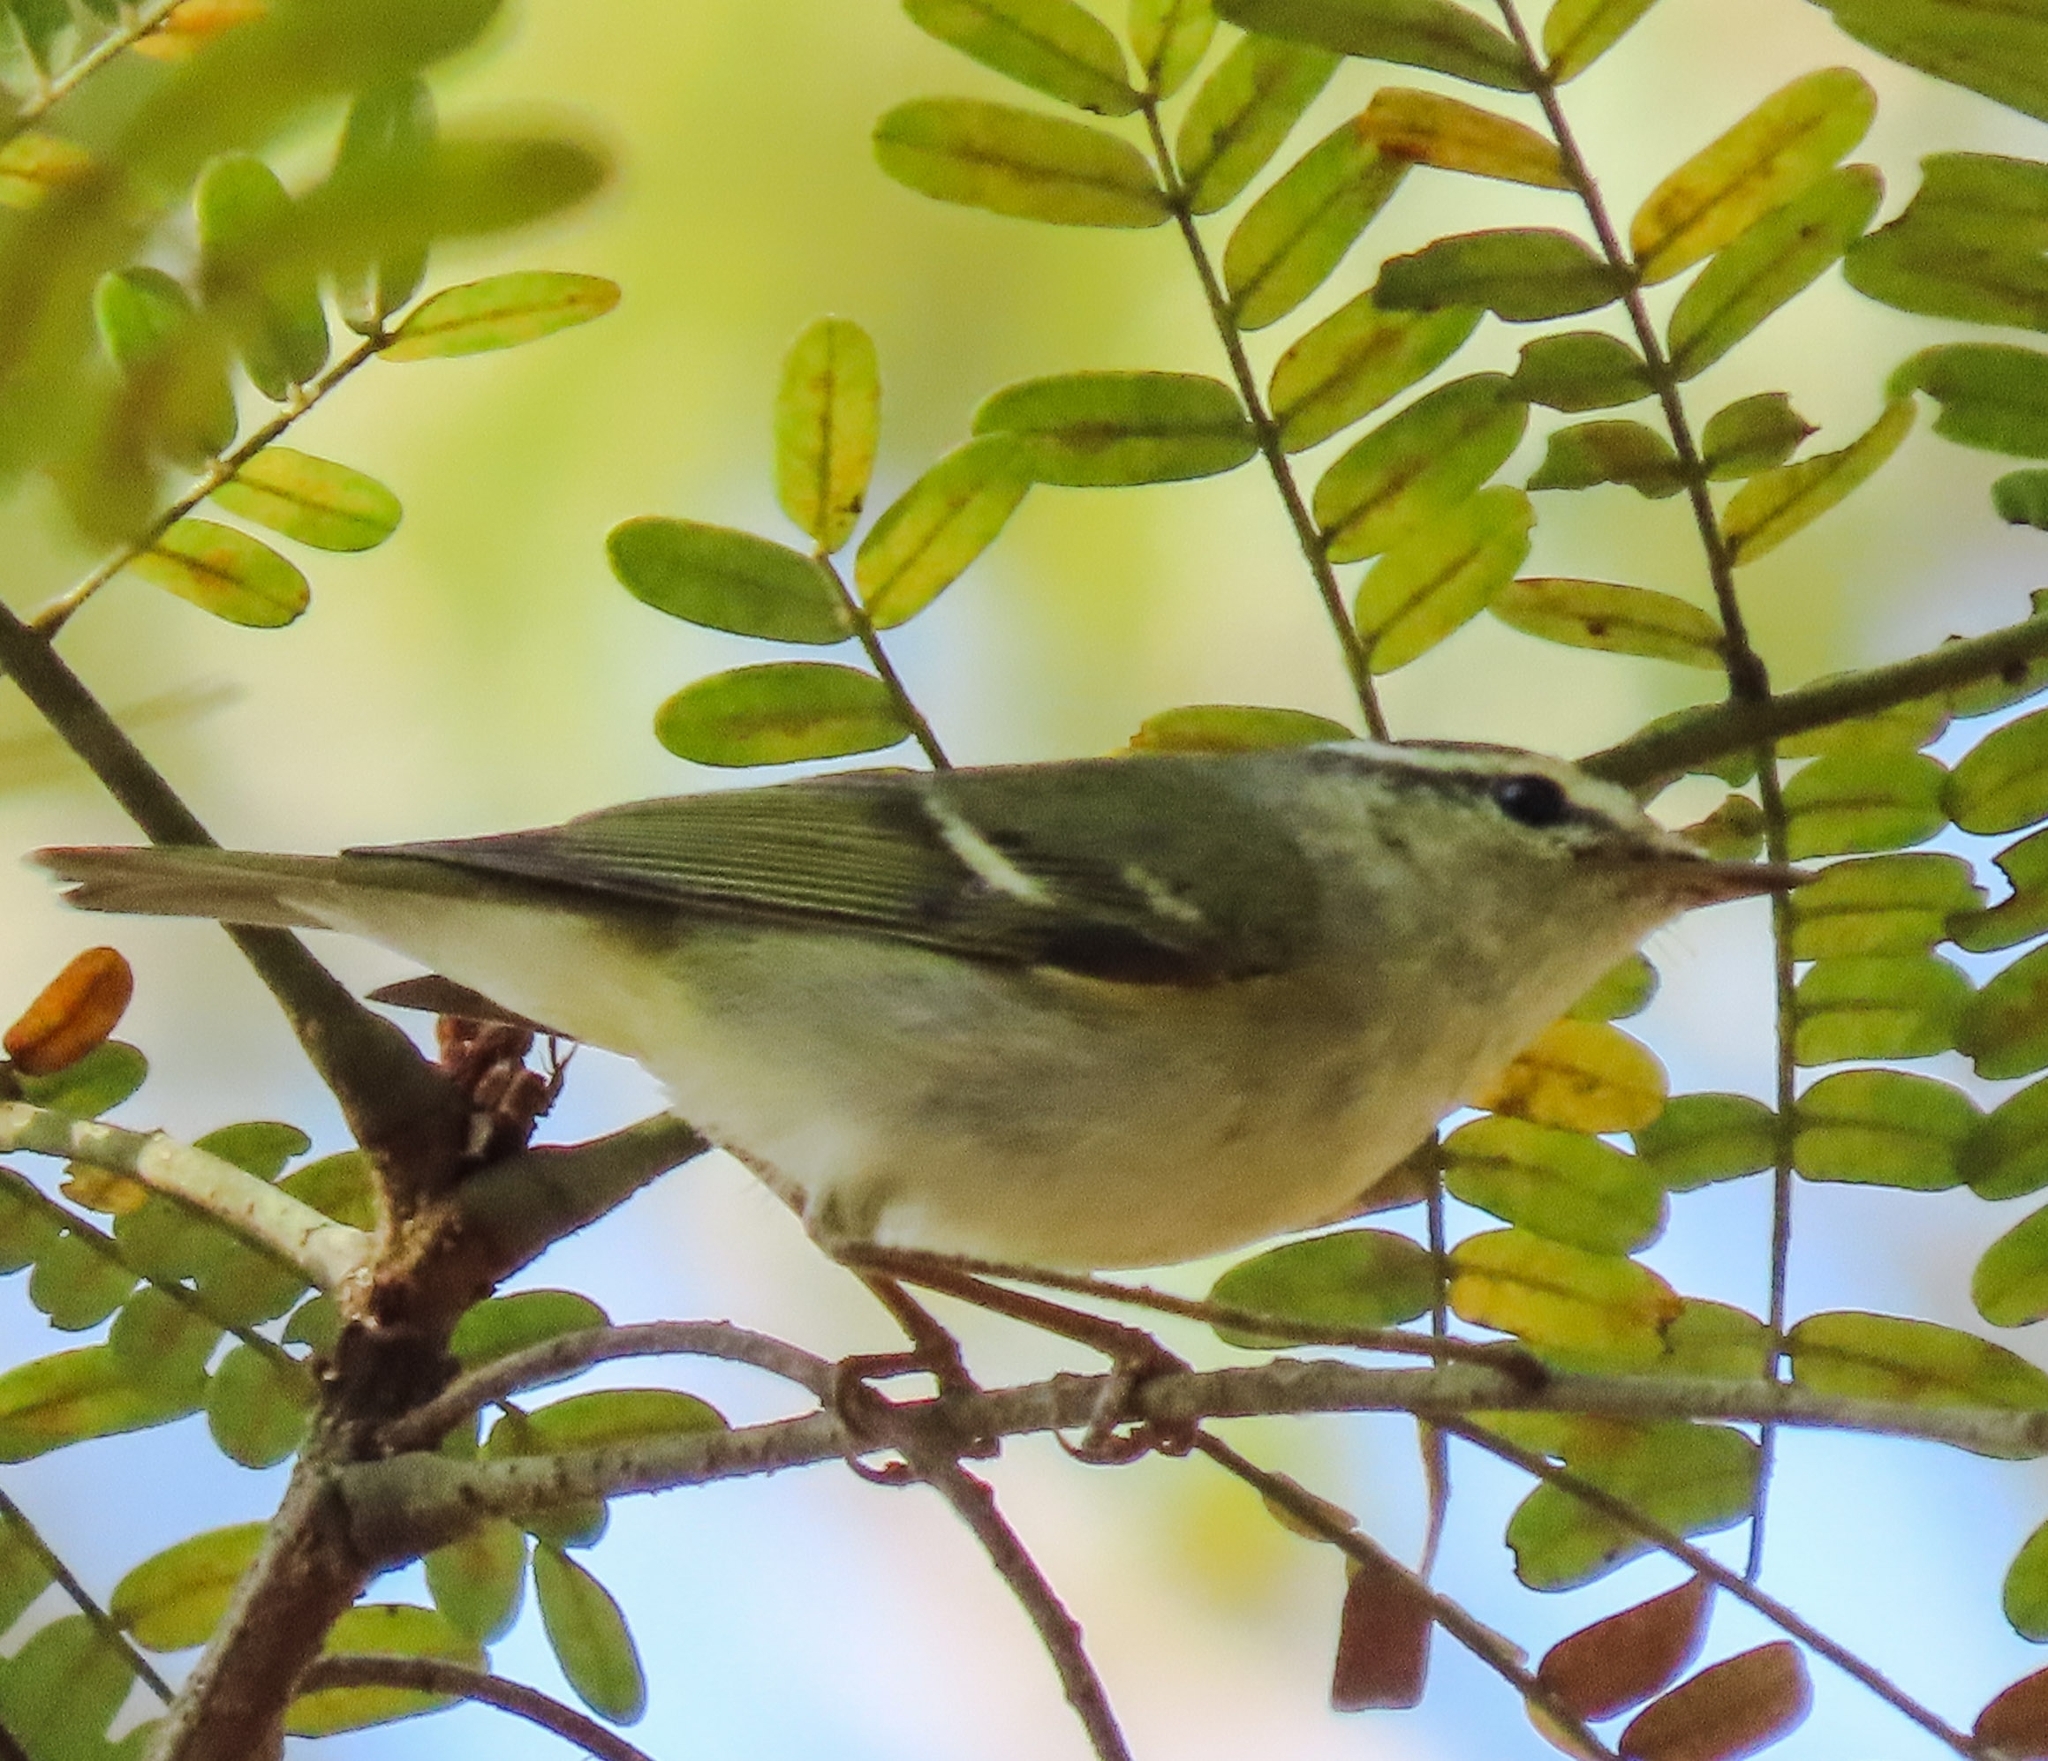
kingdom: Animalia
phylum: Chordata
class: Aves
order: Passeriformes
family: Phylloscopidae
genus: Phylloscopus
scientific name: Phylloscopus inornatus
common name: Yellow-browed warbler
